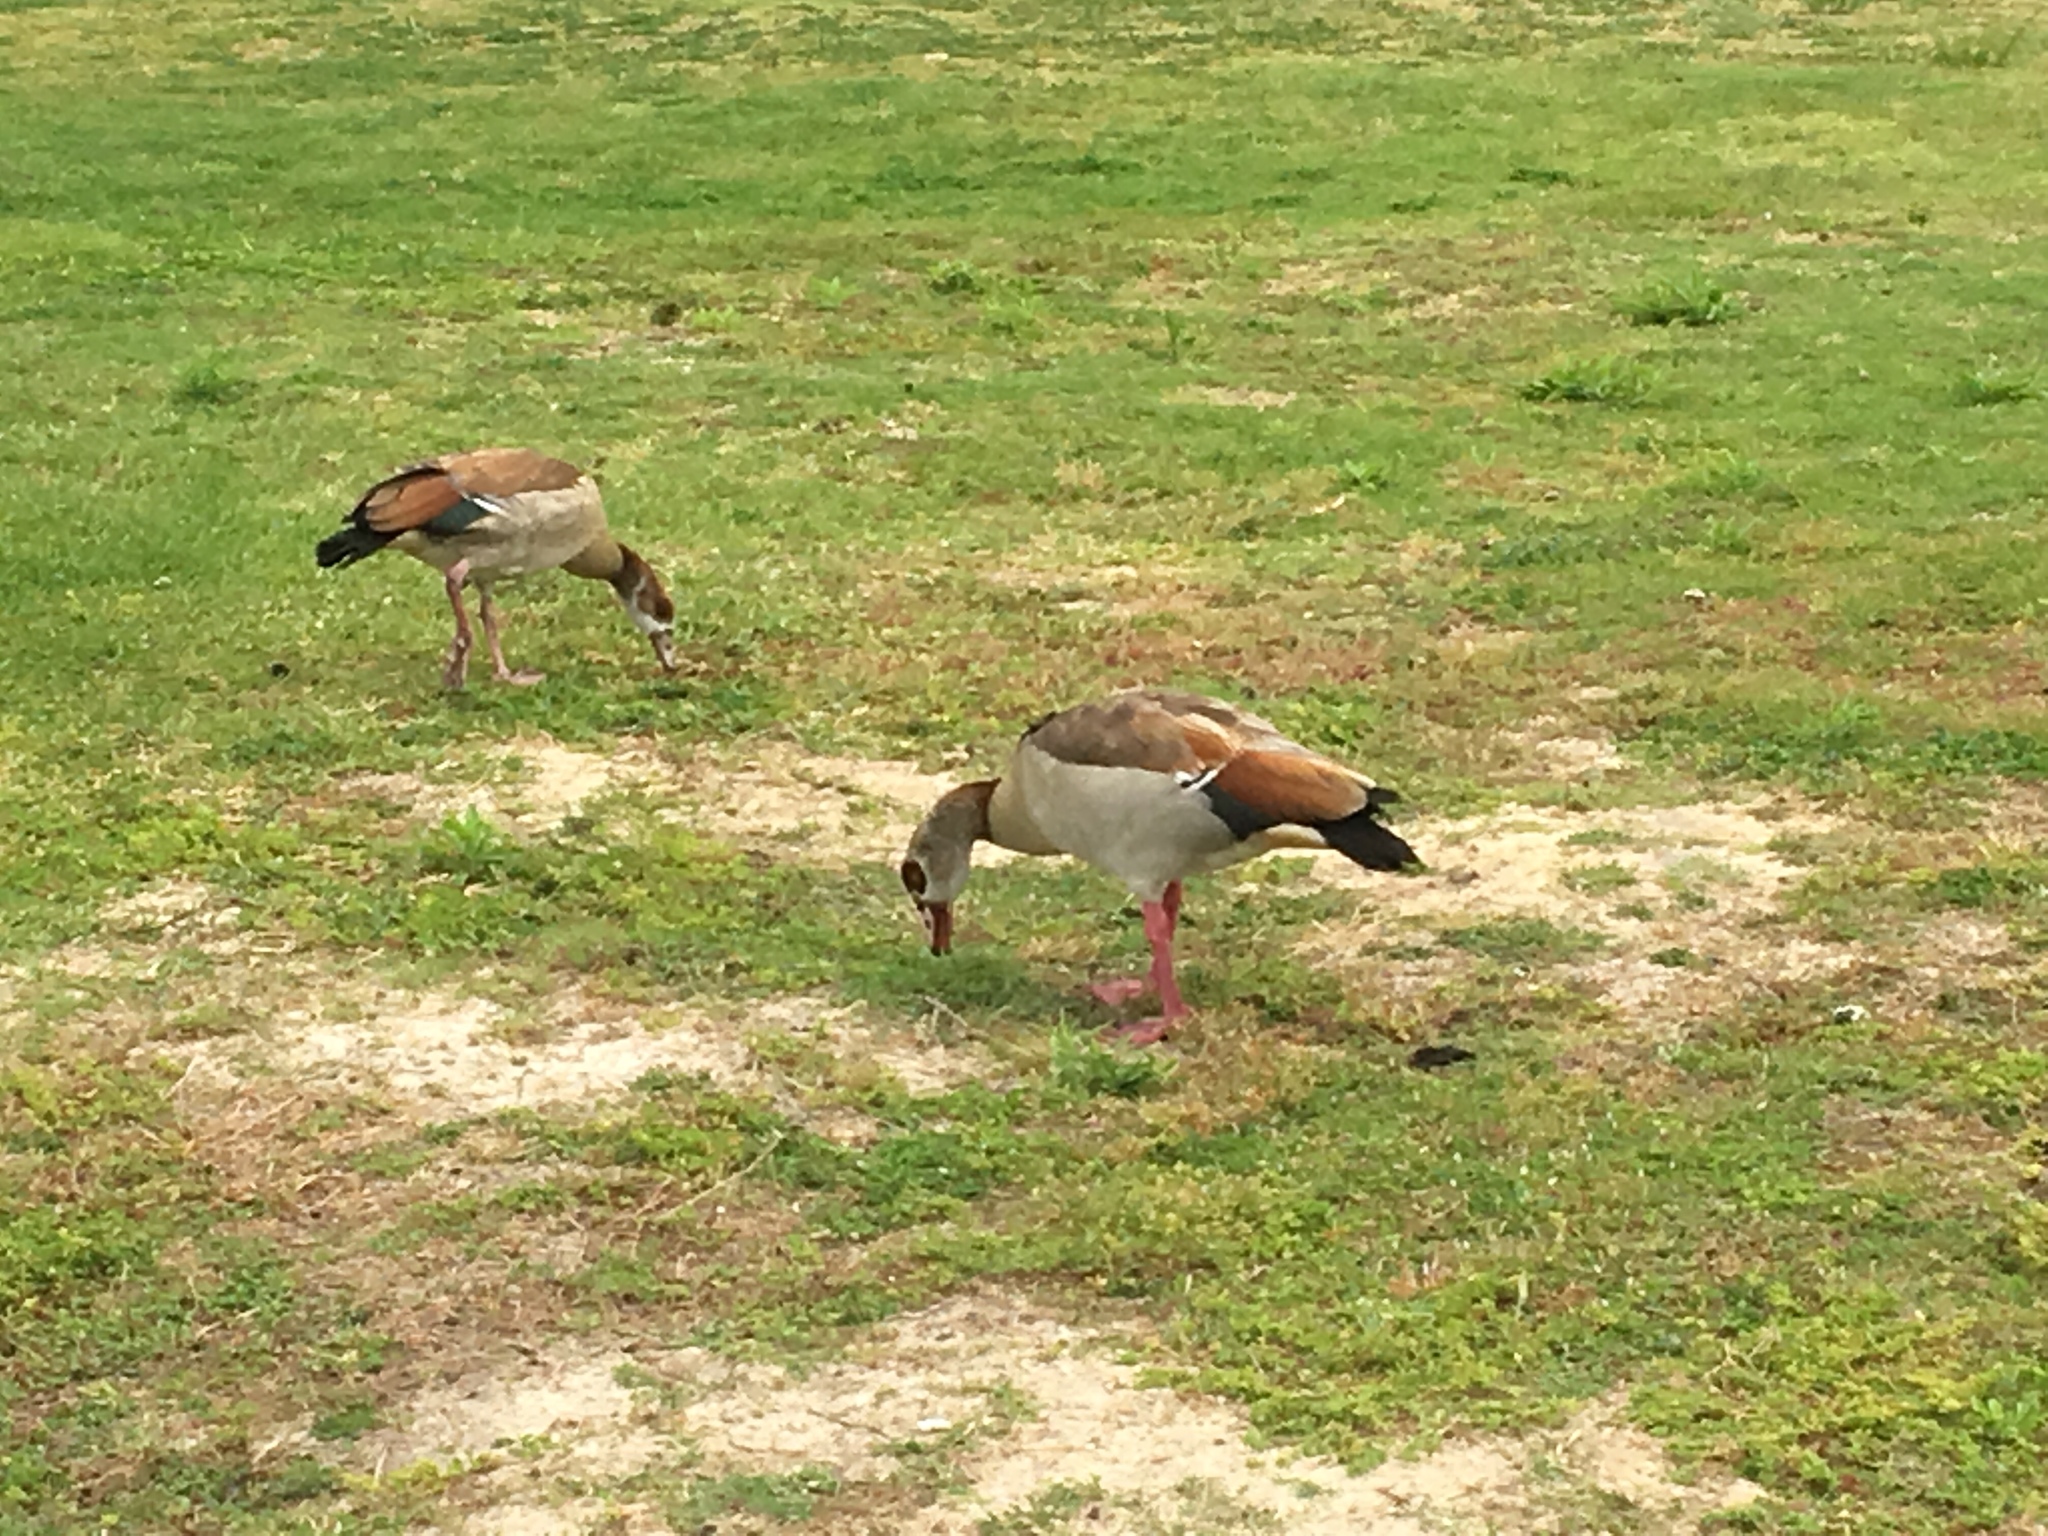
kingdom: Animalia
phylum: Chordata
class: Aves
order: Anseriformes
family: Anatidae
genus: Alopochen
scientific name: Alopochen aegyptiaca
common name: Egyptian goose
